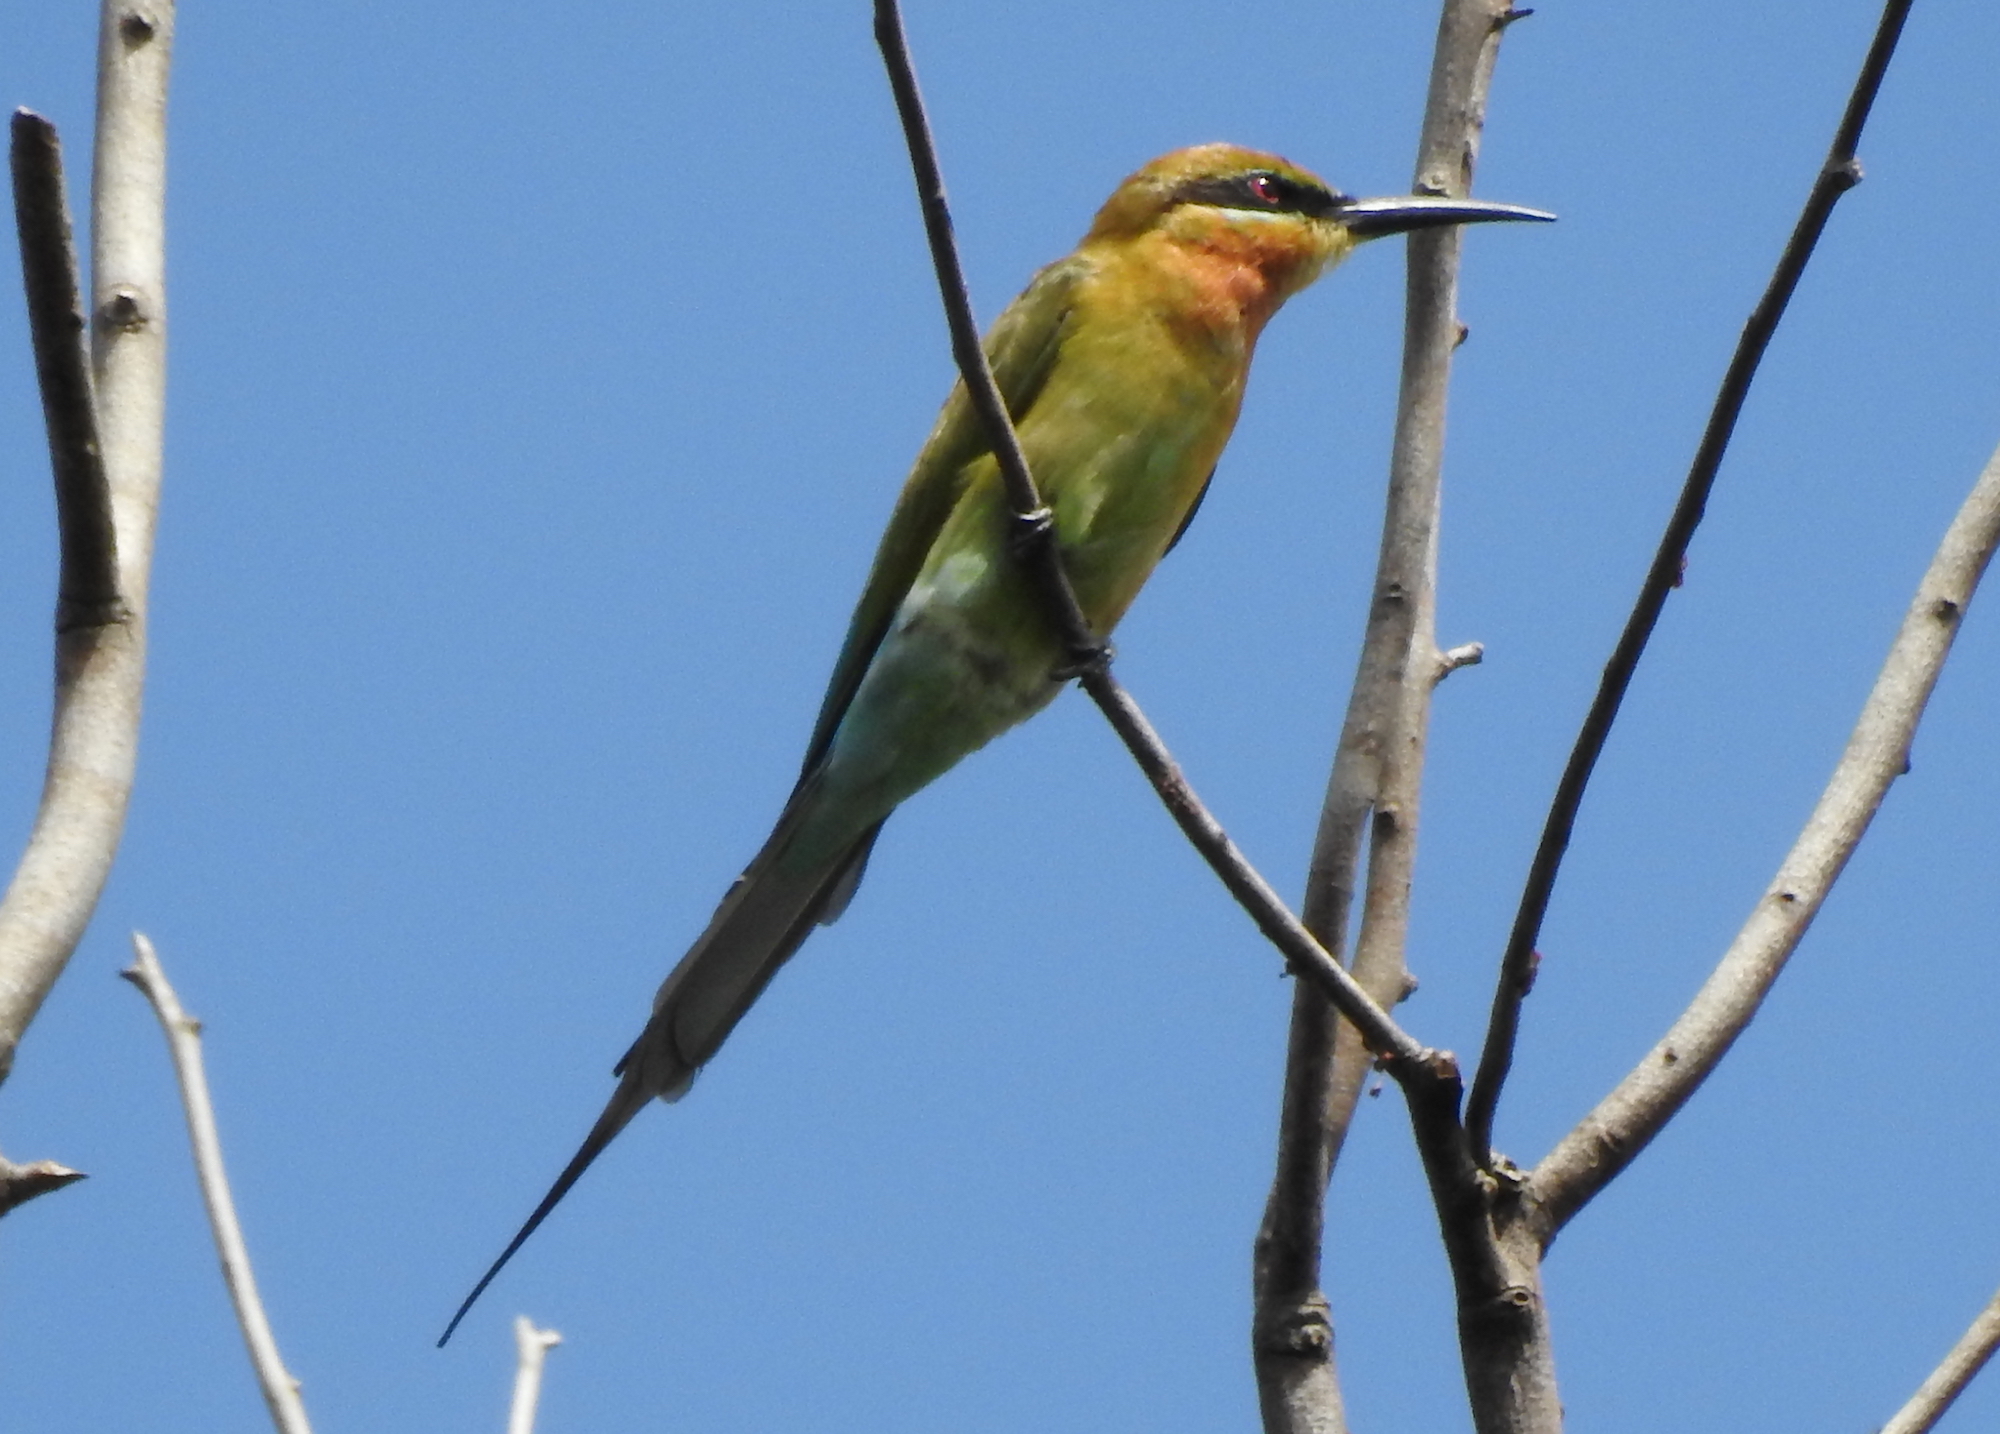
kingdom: Animalia
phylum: Chordata
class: Aves
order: Coraciiformes
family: Meropidae
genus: Merops
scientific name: Merops philippinus
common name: Blue-tailed bee-eater
